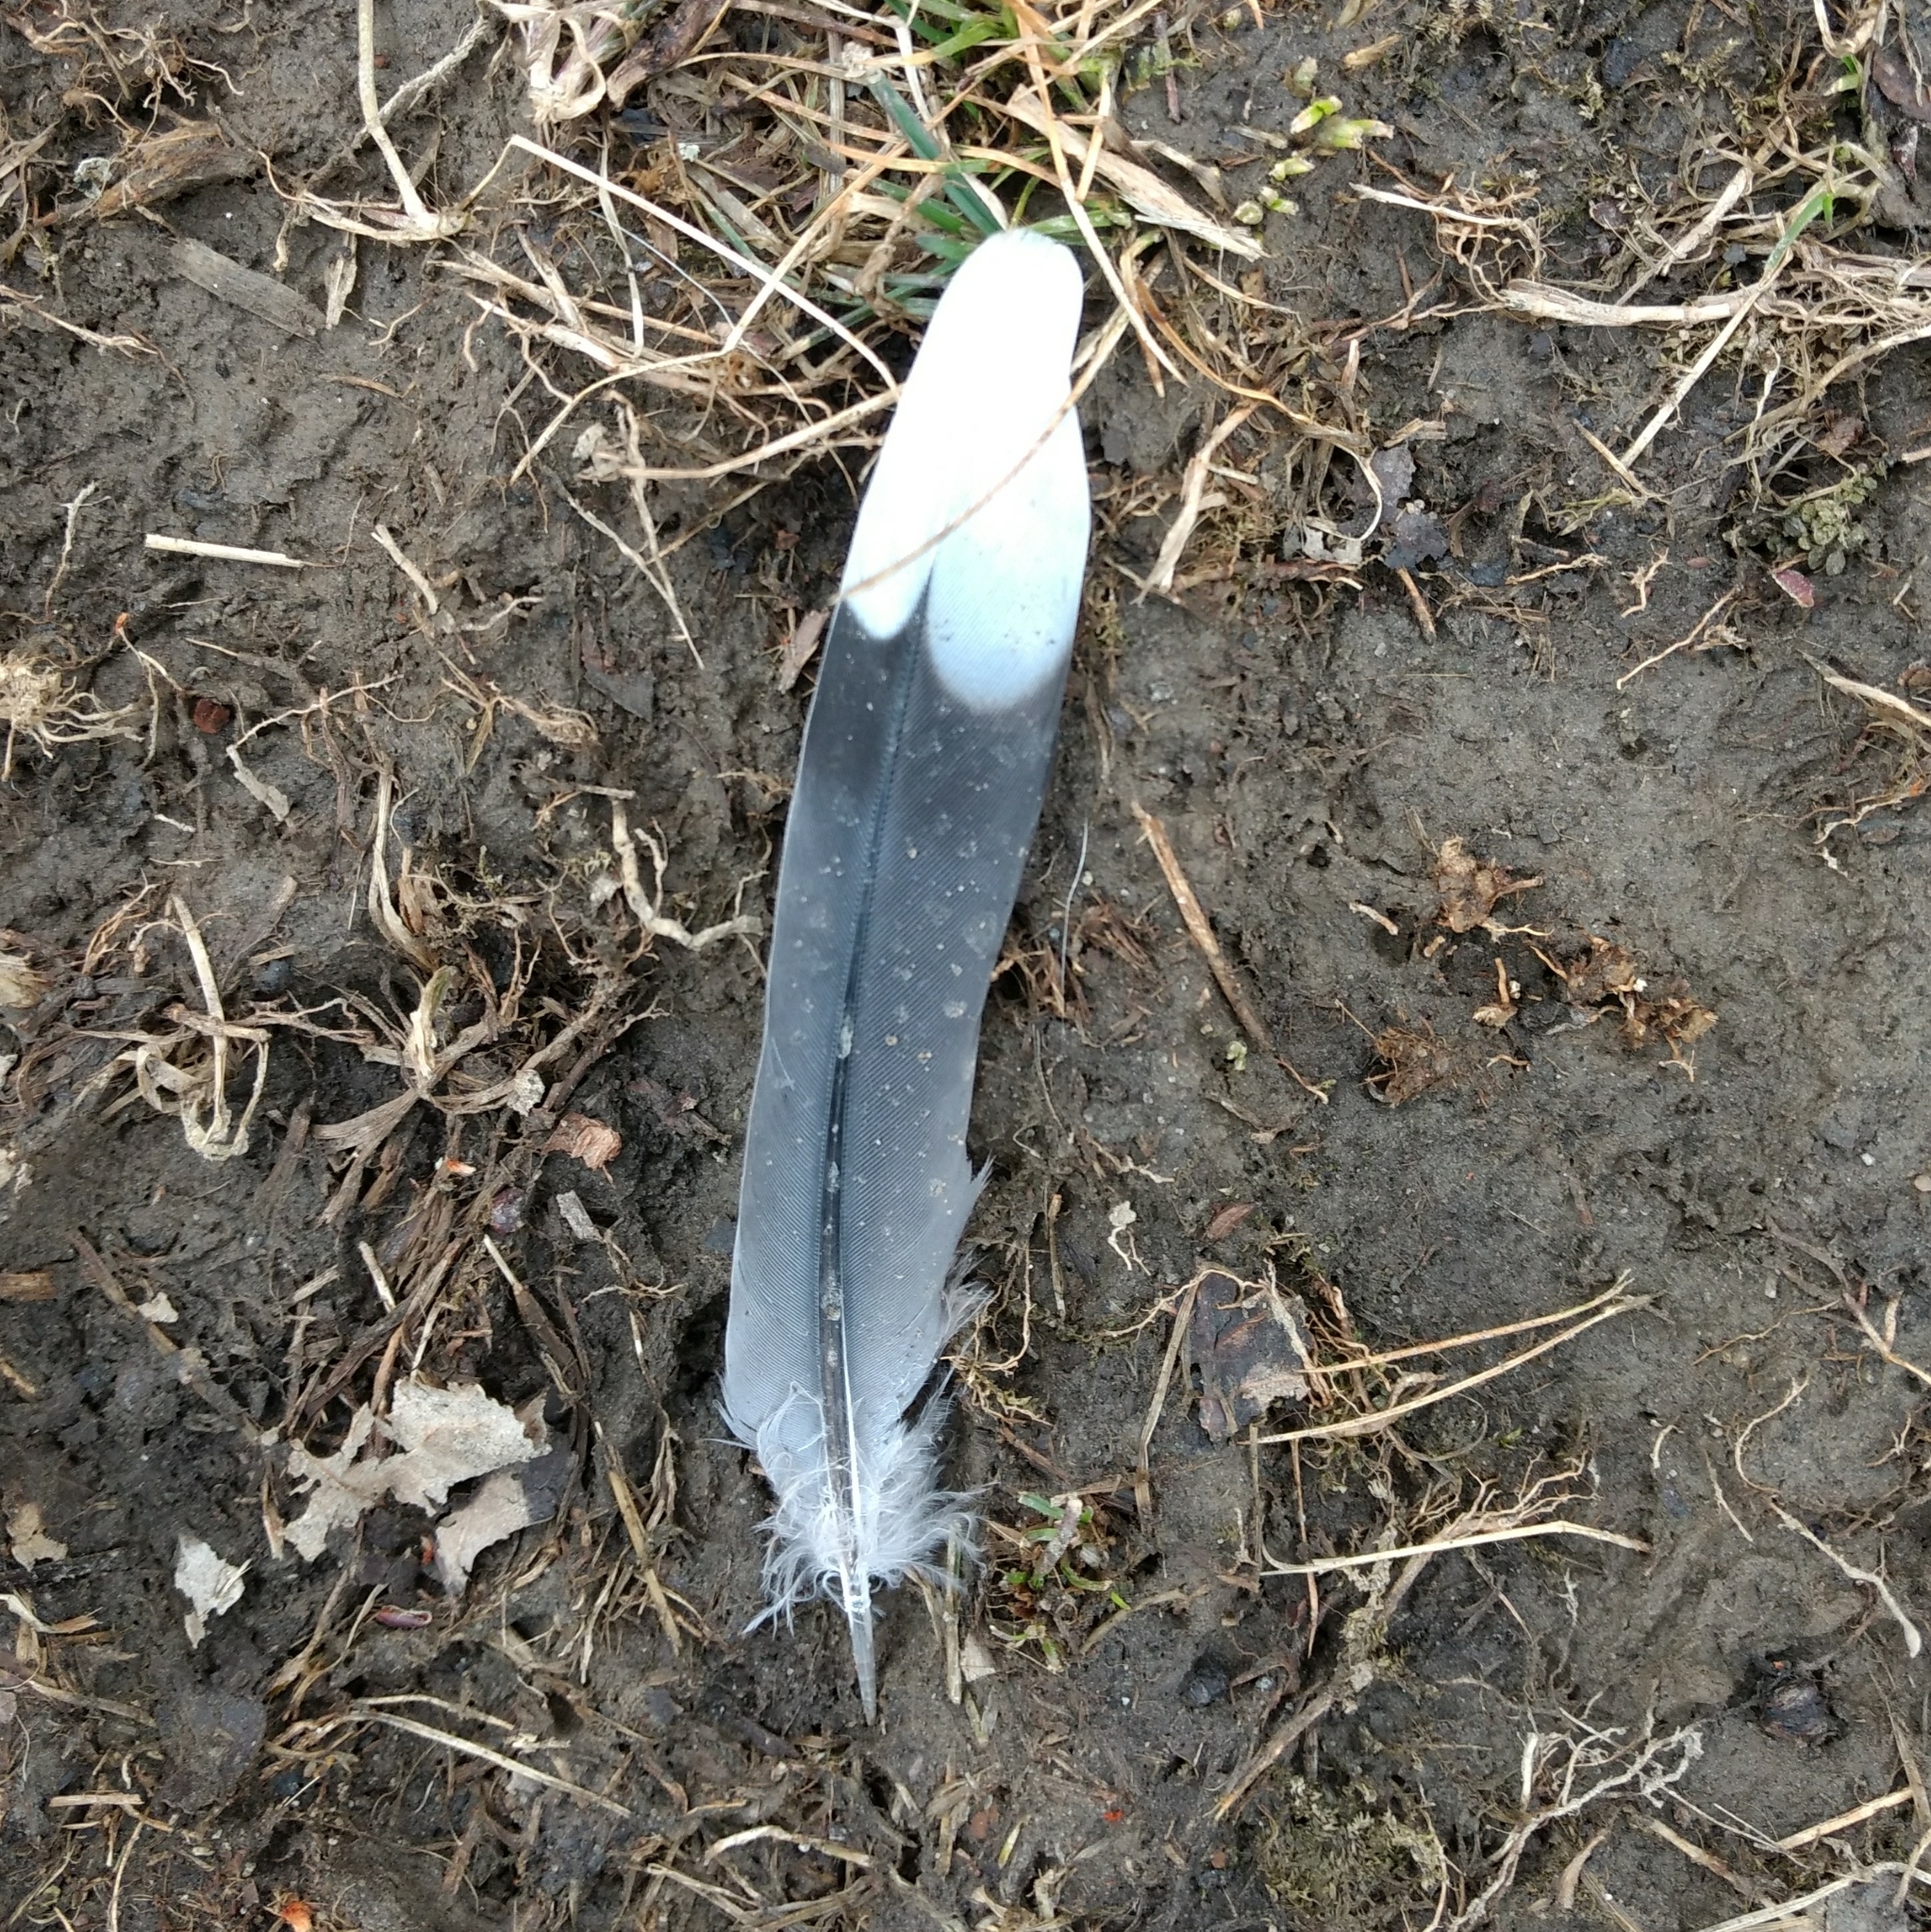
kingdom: Animalia
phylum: Chordata
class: Aves
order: Columbiformes
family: Columbidae
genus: Zenaida
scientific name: Zenaida macroura
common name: Mourning dove
